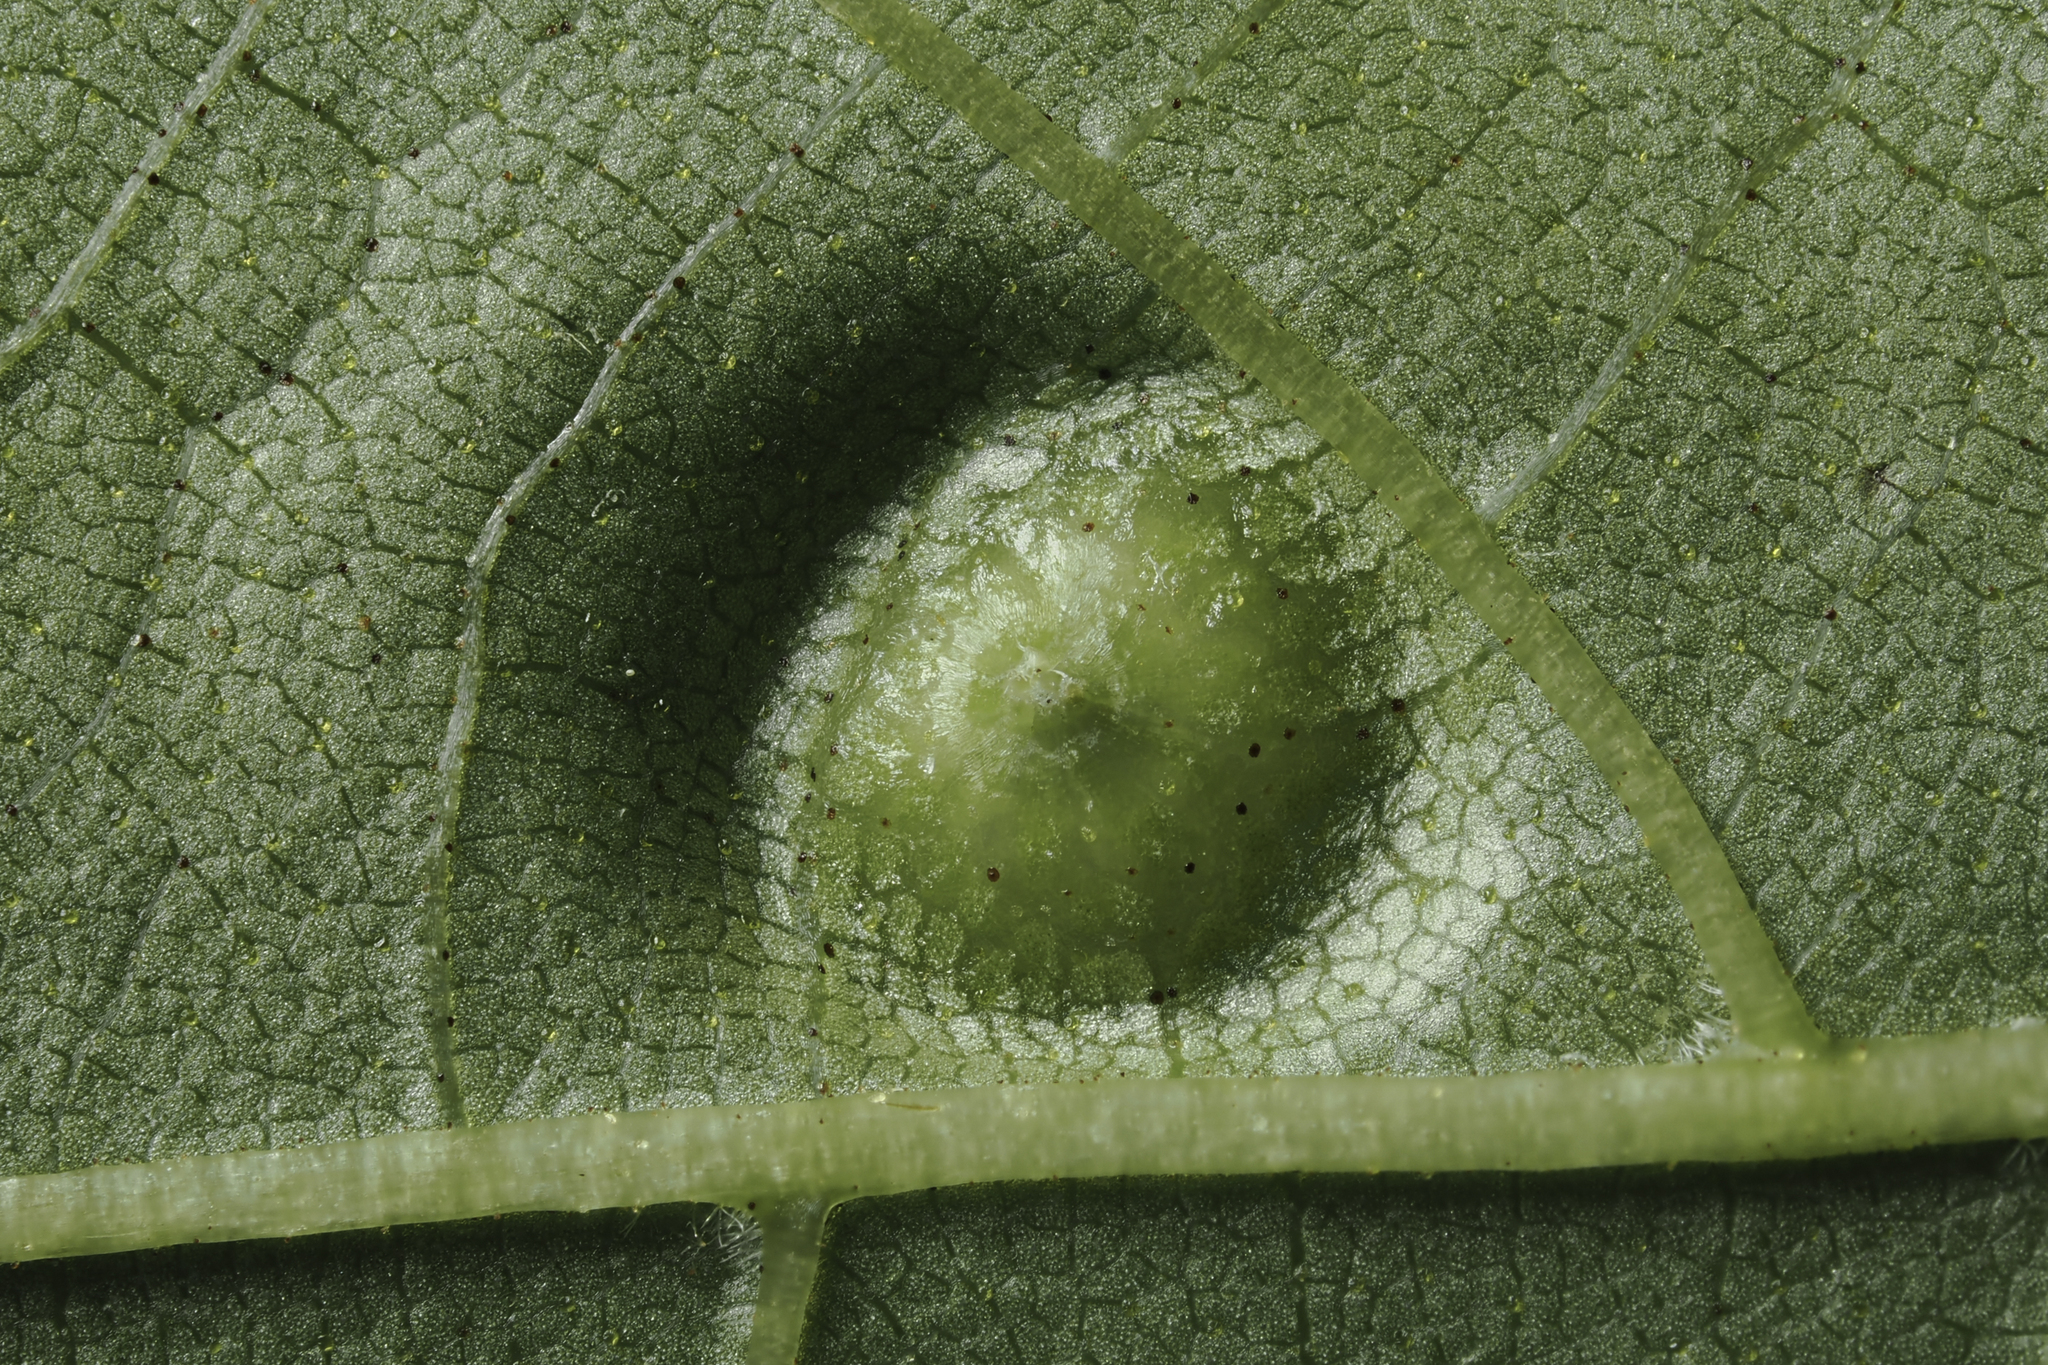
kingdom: Animalia
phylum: Arthropoda
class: Insecta
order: Hemiptera
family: Phylloxeridae
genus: Phylloxera
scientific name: Phylloxera foveola
